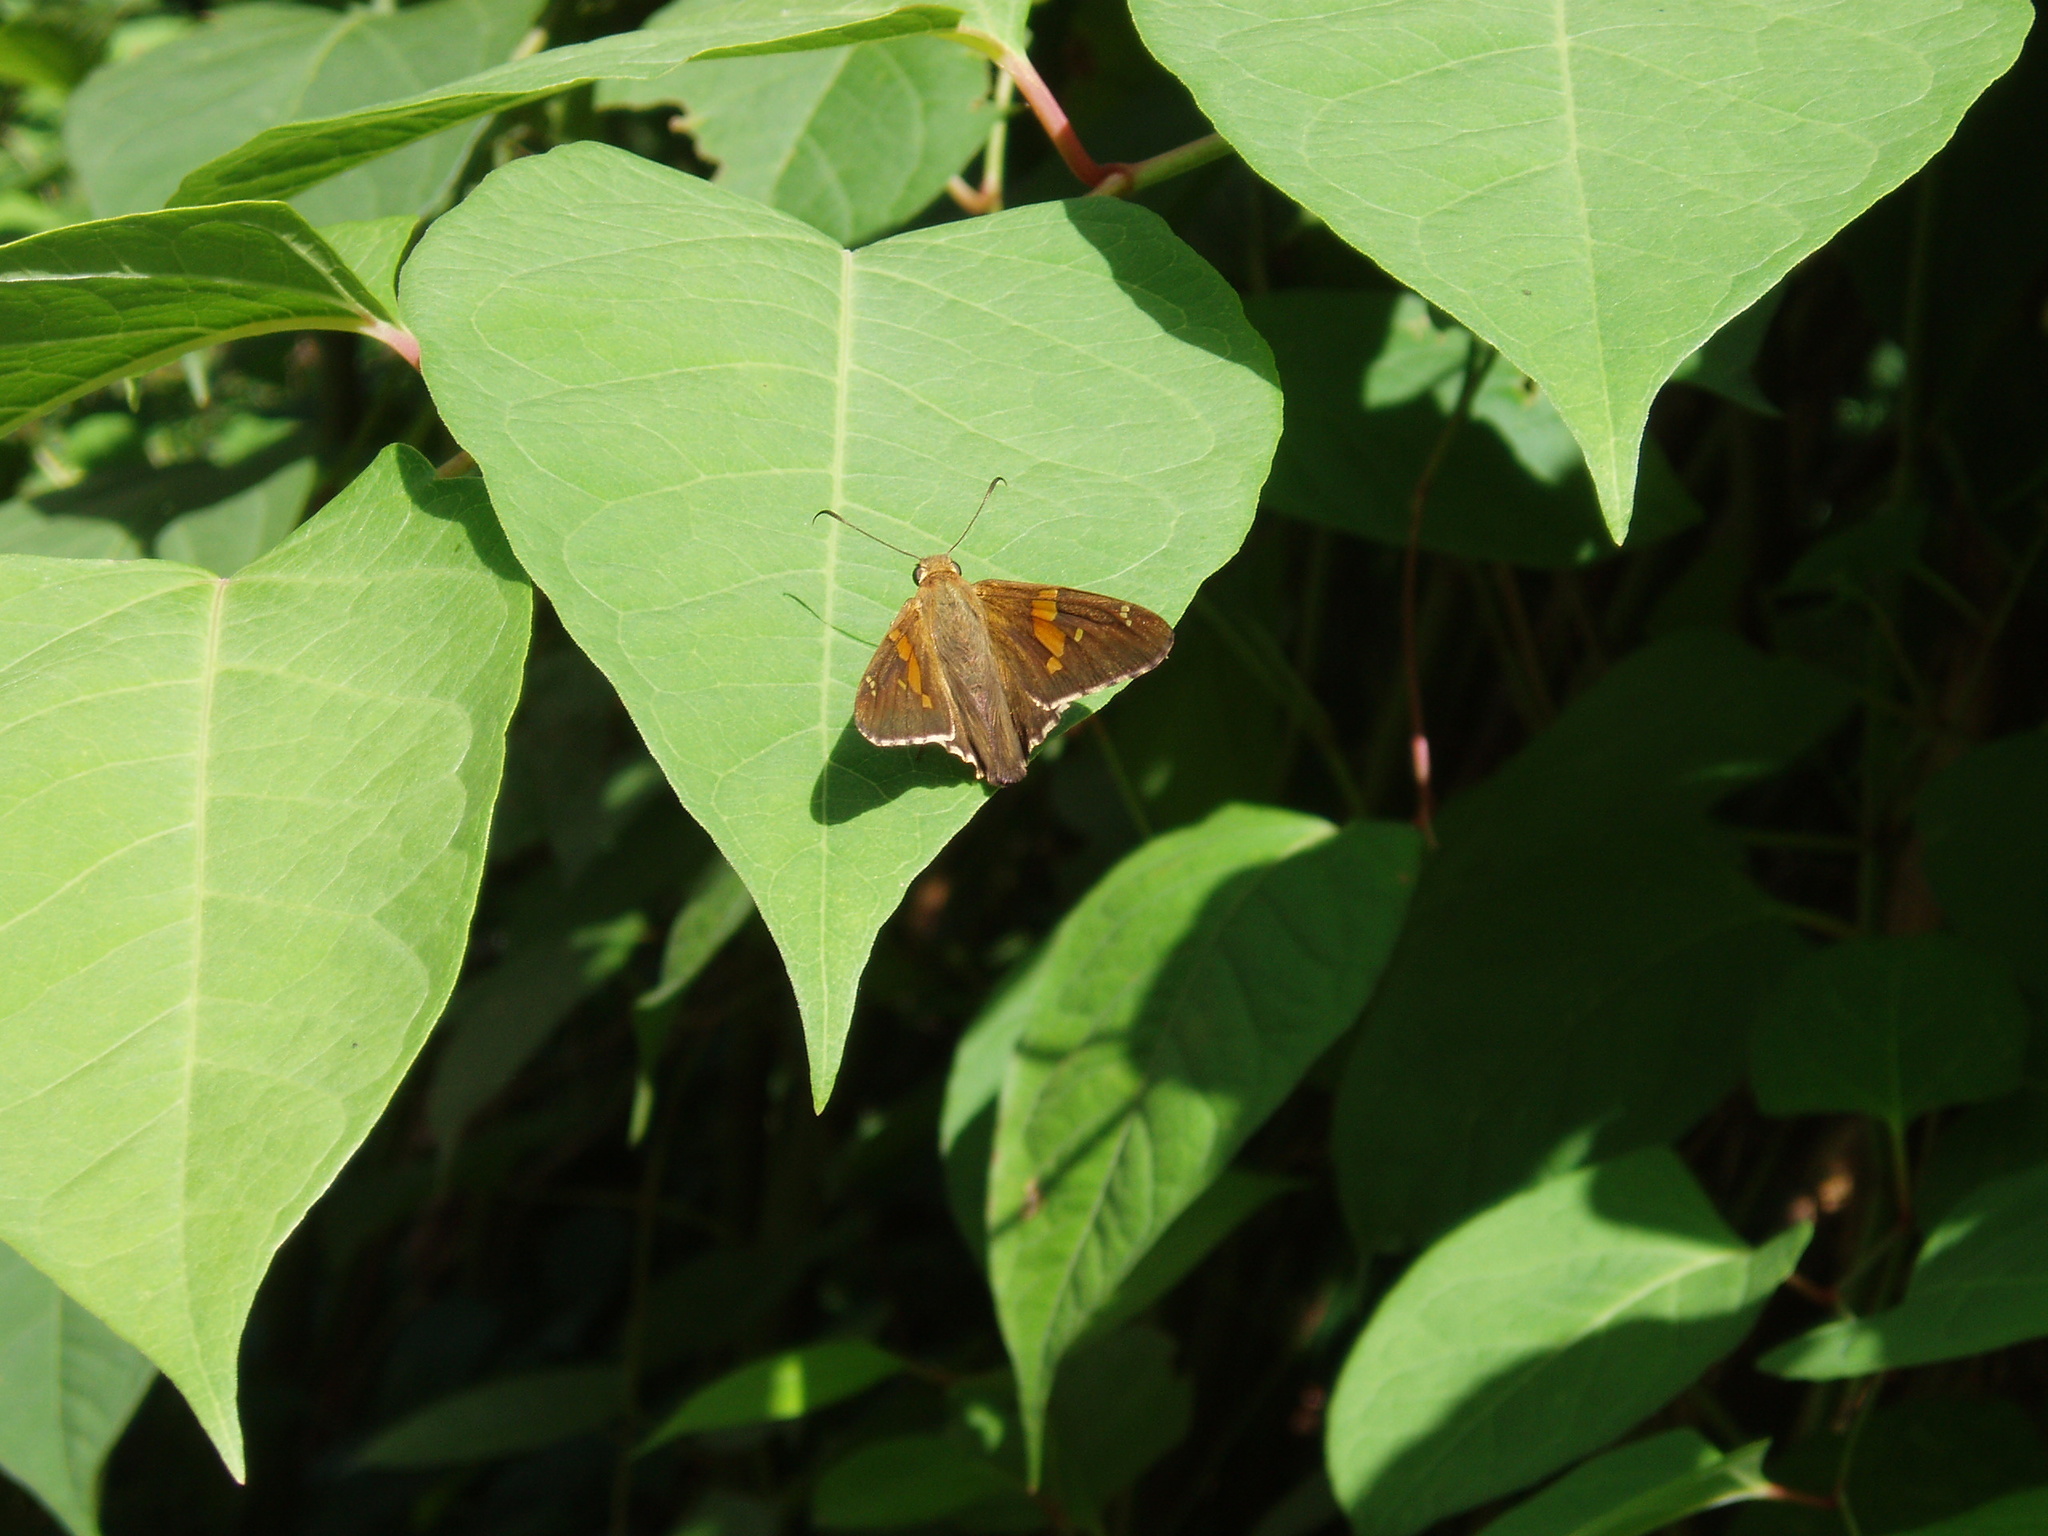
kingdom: Animalia
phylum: Arthropoda
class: Insecta
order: Lepidoptera
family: Hesperiidae
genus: Epargyreus
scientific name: Epargyreus clarus
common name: Silver-spotted skipper
